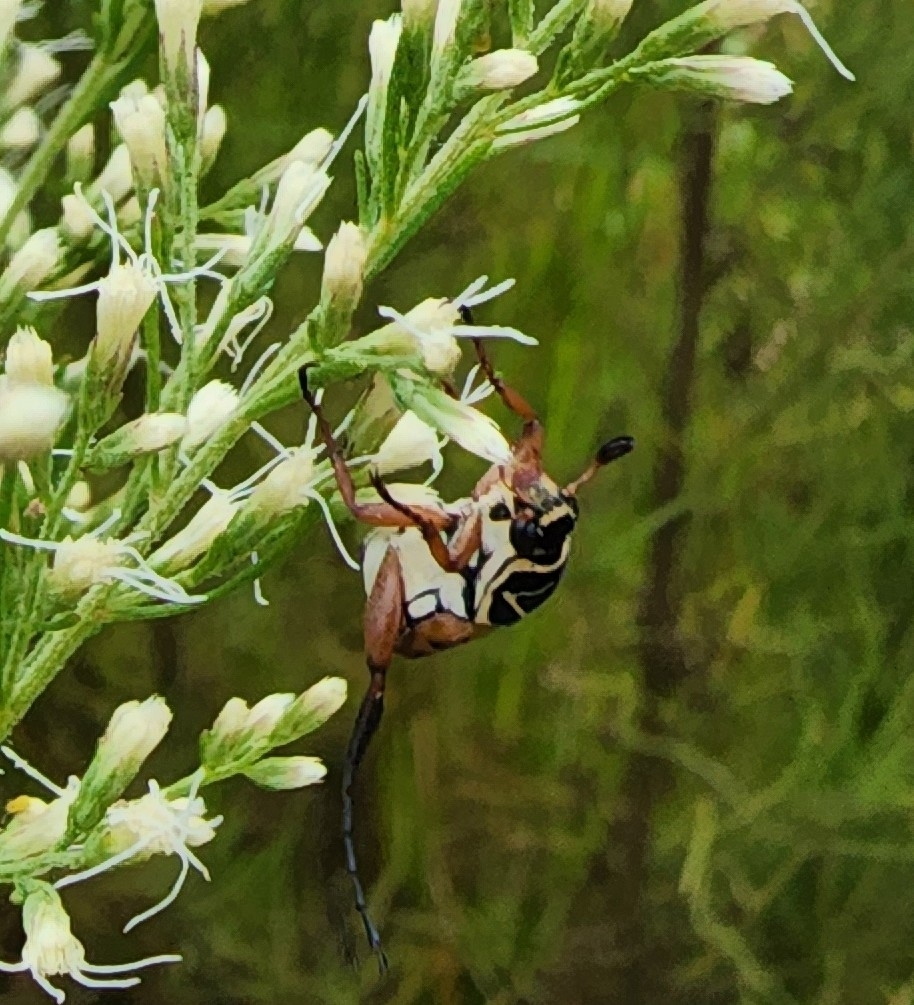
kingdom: Animalia
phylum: Arthropoda
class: Insecta
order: Coleoptera
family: Scarabaeidae
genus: Trigonopeltastes
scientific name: Trigonopeltastes delta
